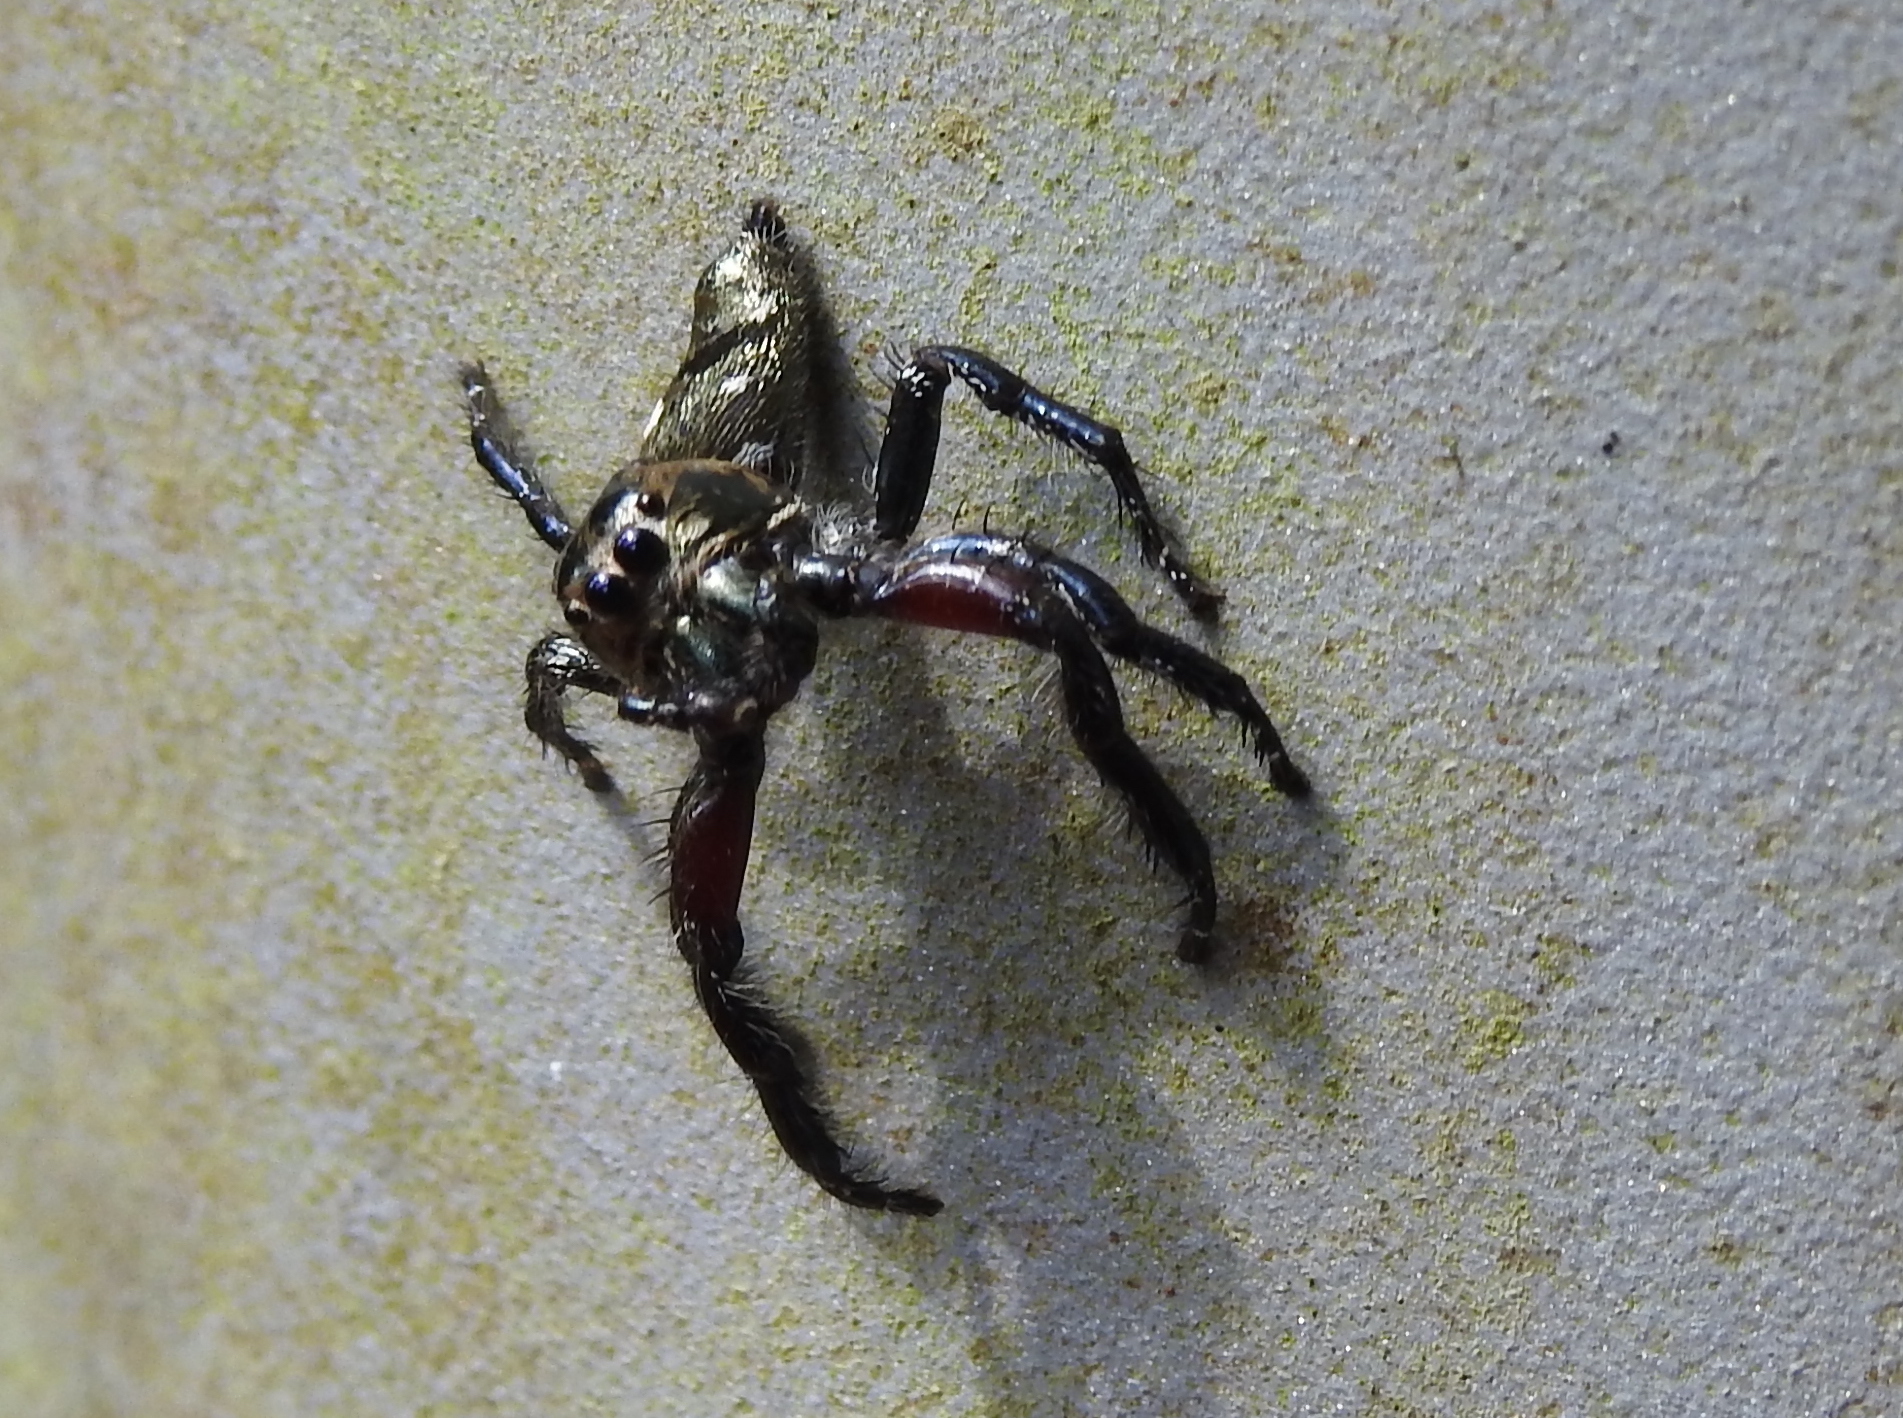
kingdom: Animalia
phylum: Arthropoda
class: Arachnida
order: Araneae
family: Salticidae
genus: Hyllus
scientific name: Hyllus diardi
